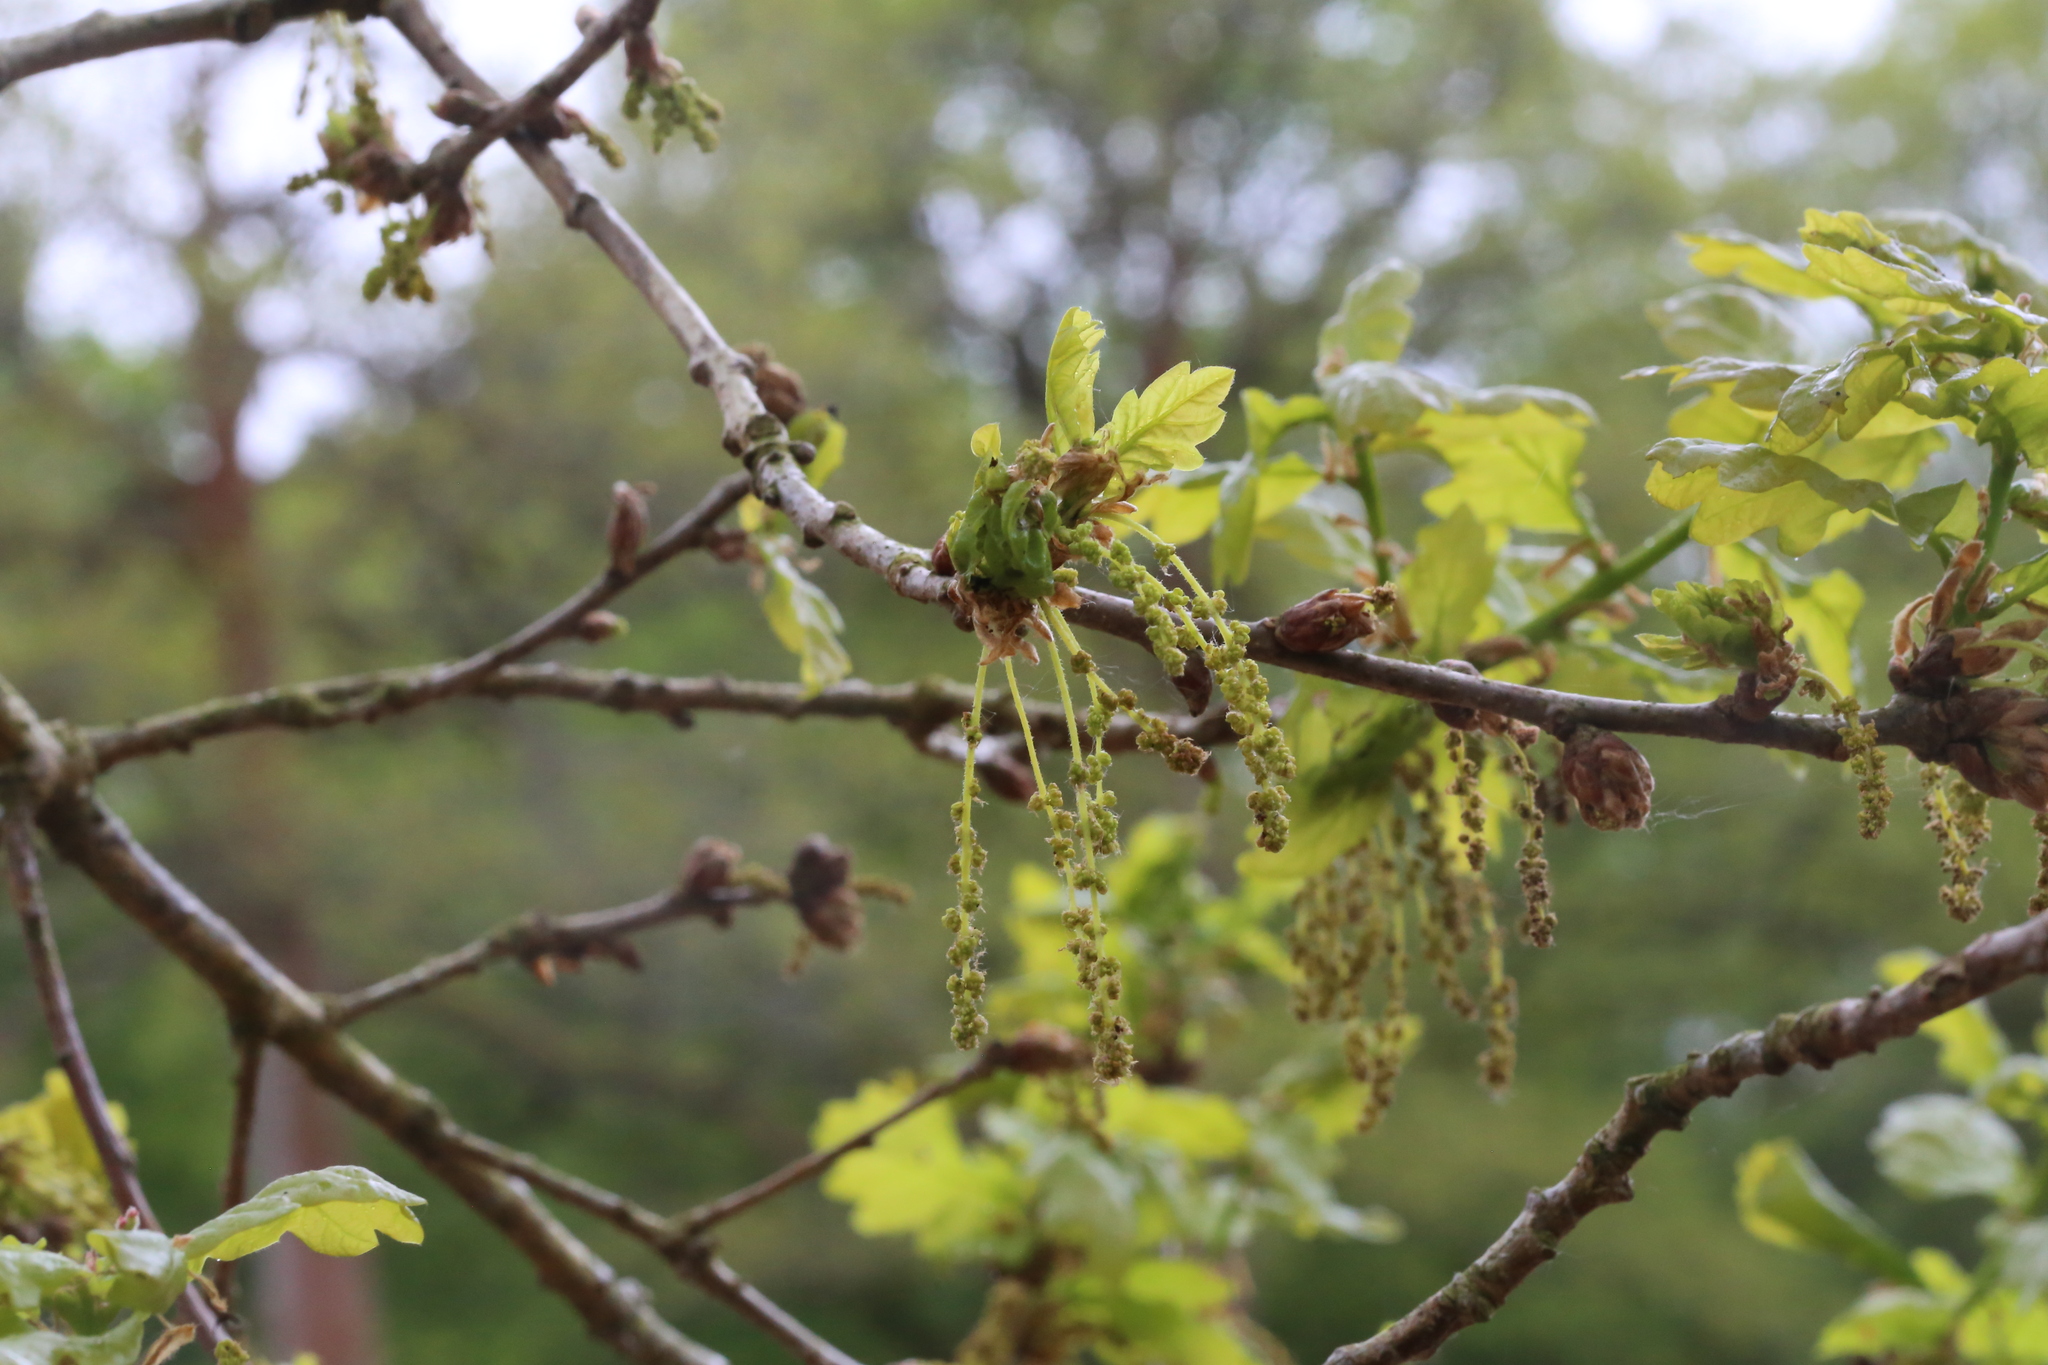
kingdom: Plantae
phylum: Tracheophyta
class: Magnoliopsida
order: Fagales
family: Fagaceae
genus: Quercus
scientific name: Quercus robur
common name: Pedunculate oak
